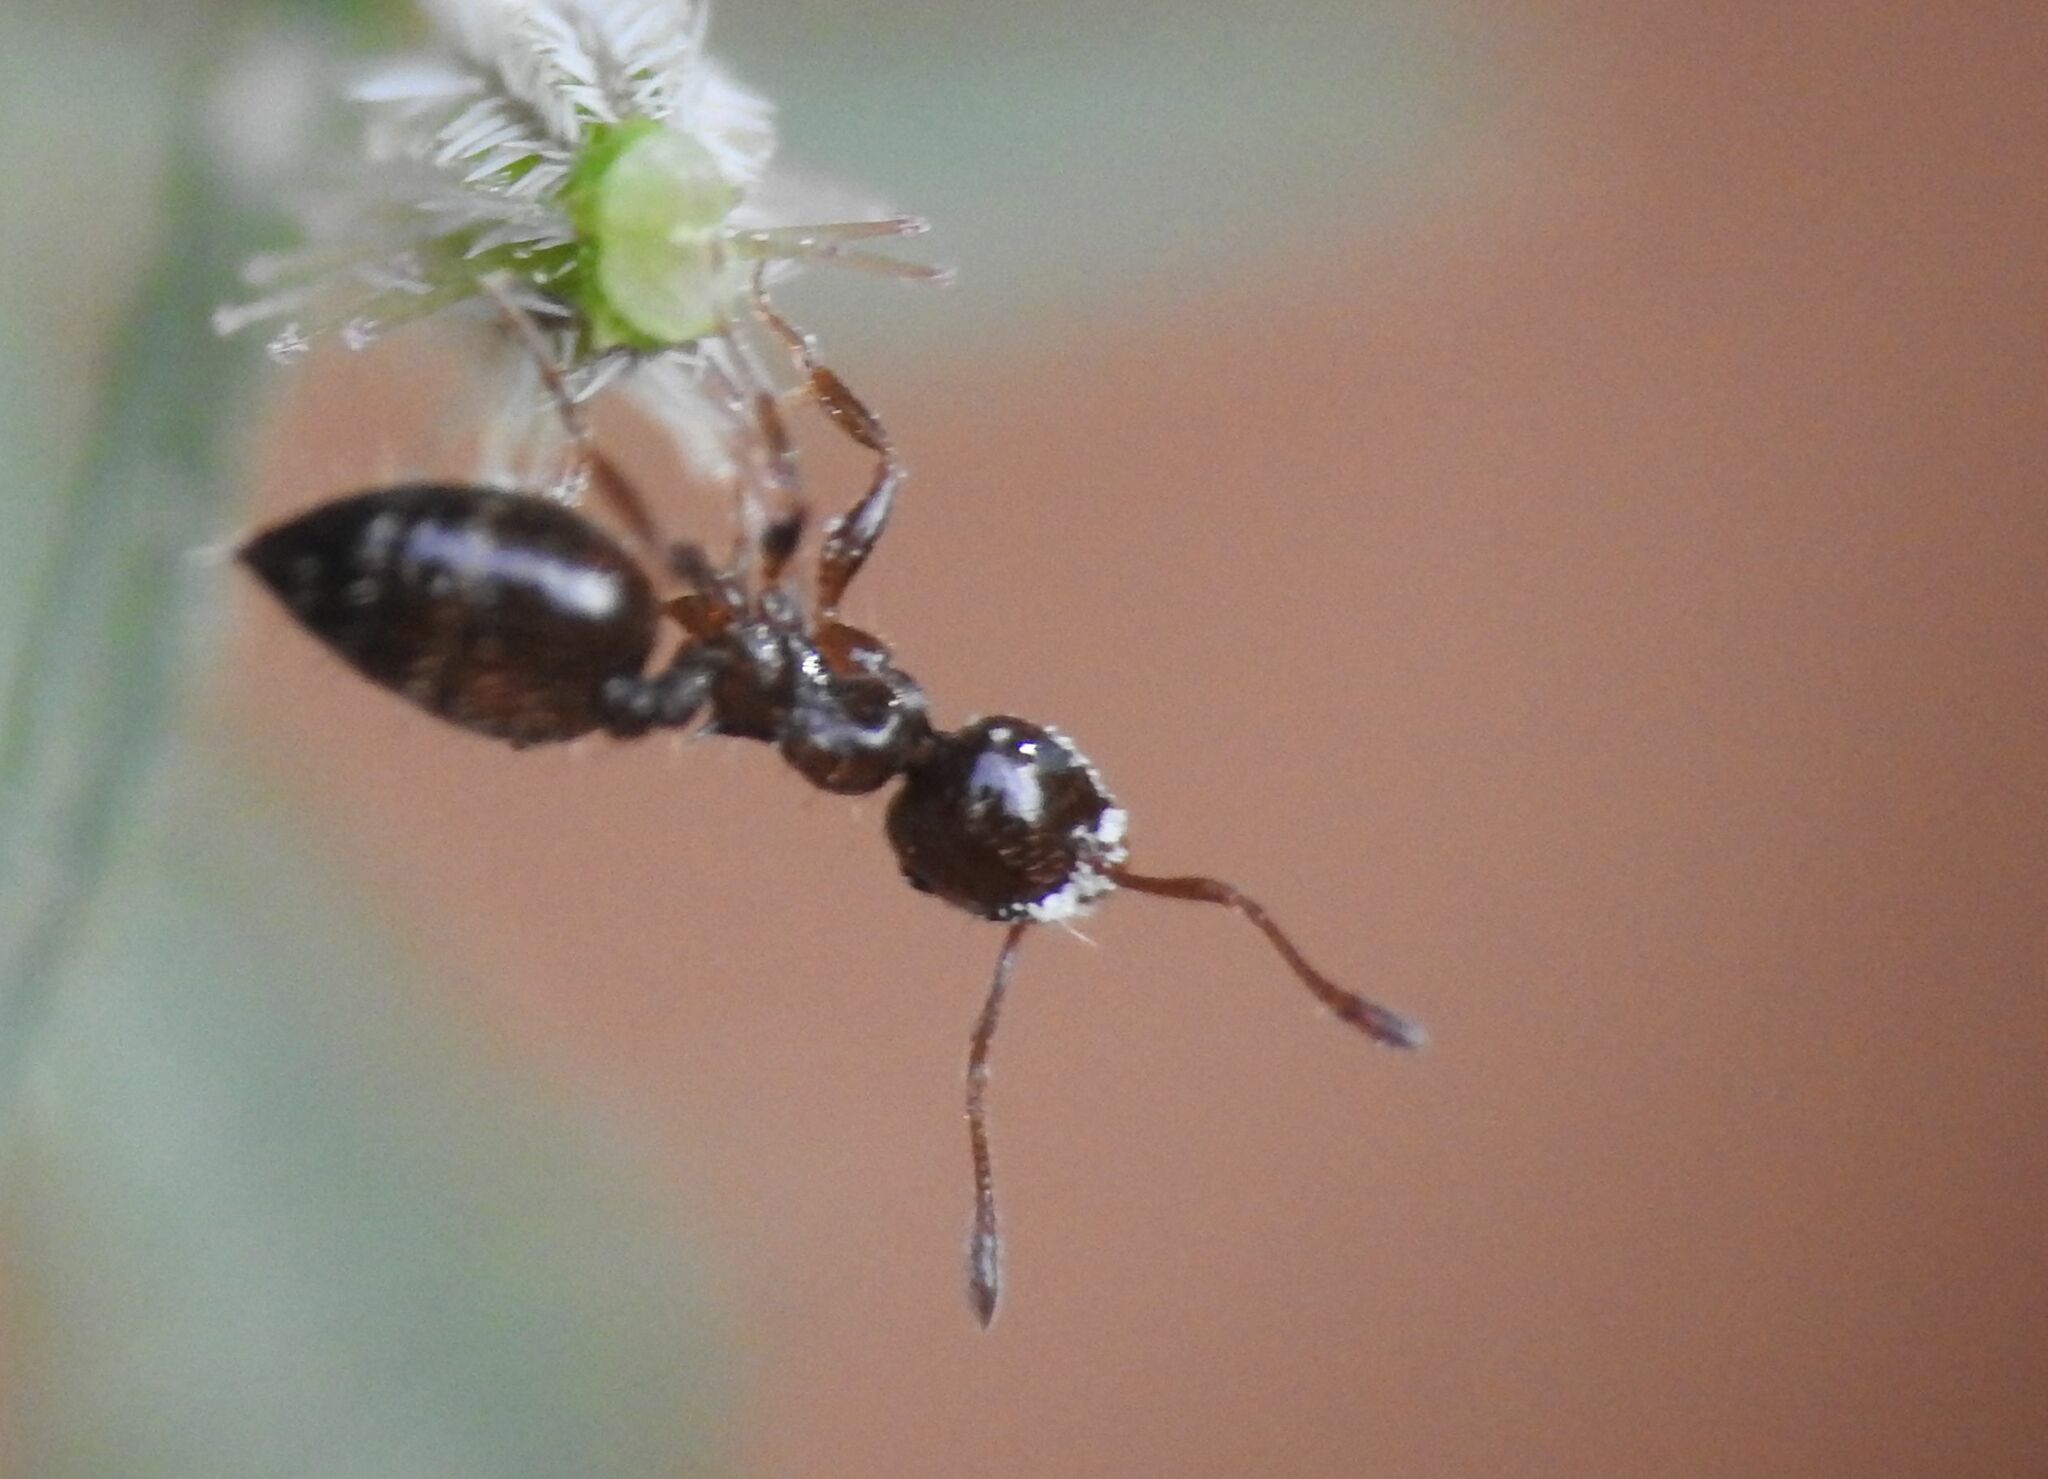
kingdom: Animalia
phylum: Arthropoda
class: Insecta
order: Hymenoptera
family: Formicidae
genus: Crematogaster
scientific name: Crematogaster sordidula
